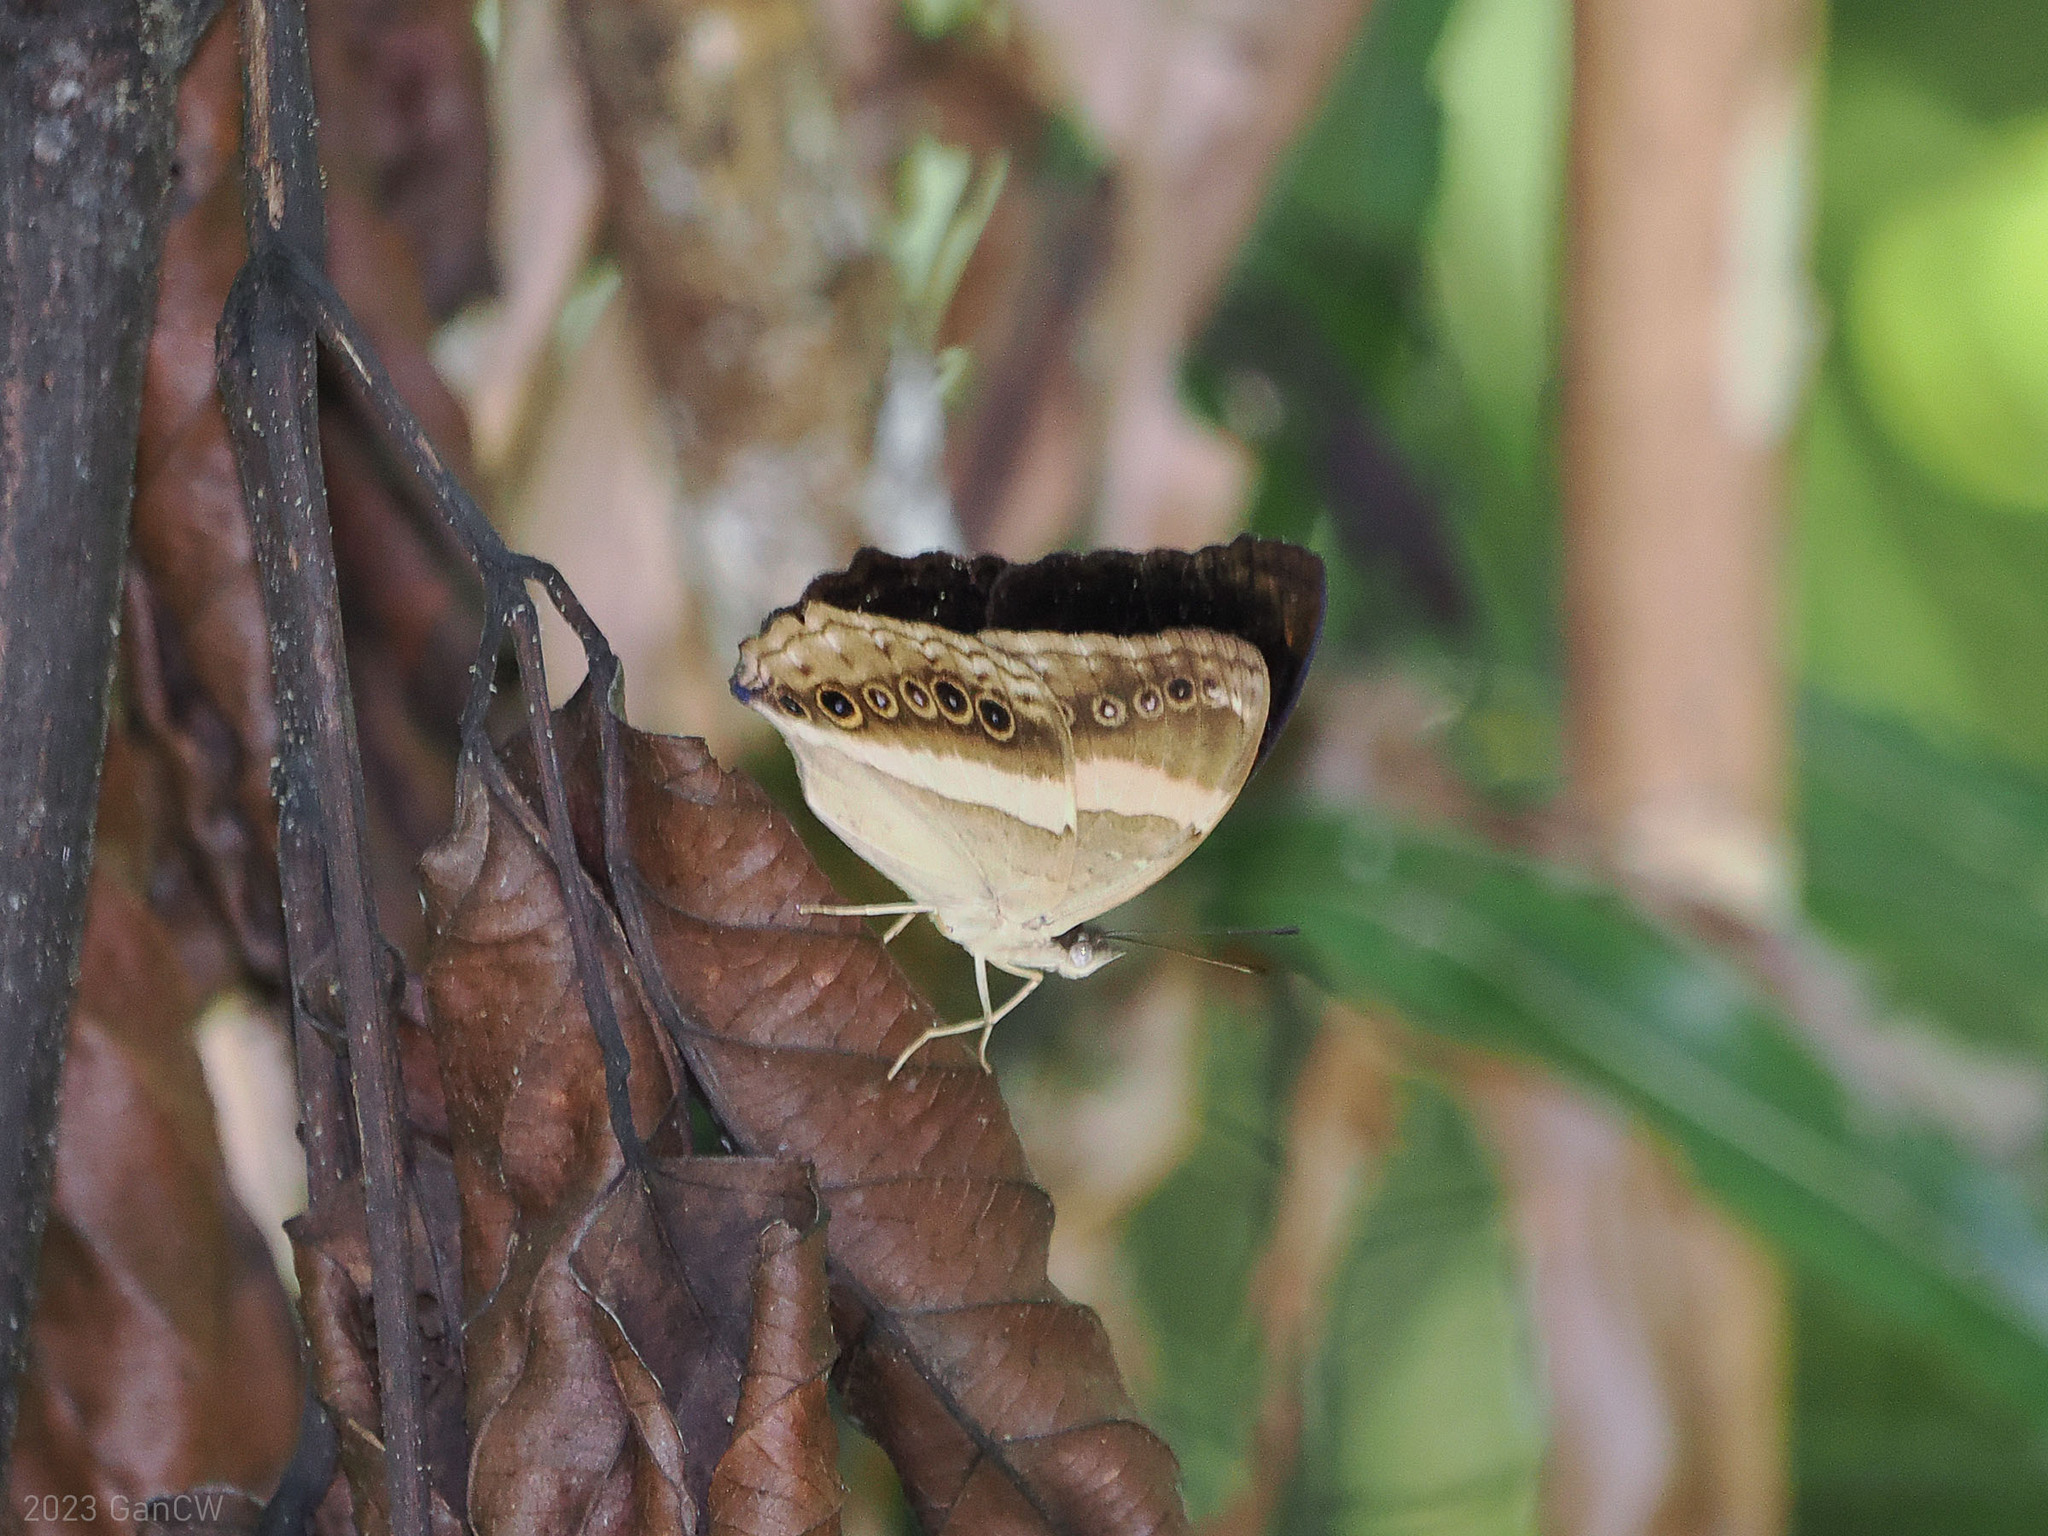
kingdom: Animalia
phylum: Arthropoda
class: Insecta
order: Lepidoptera
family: Nymphalidae
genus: Yoma
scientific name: Yoma algina
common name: New guinea lurcher
